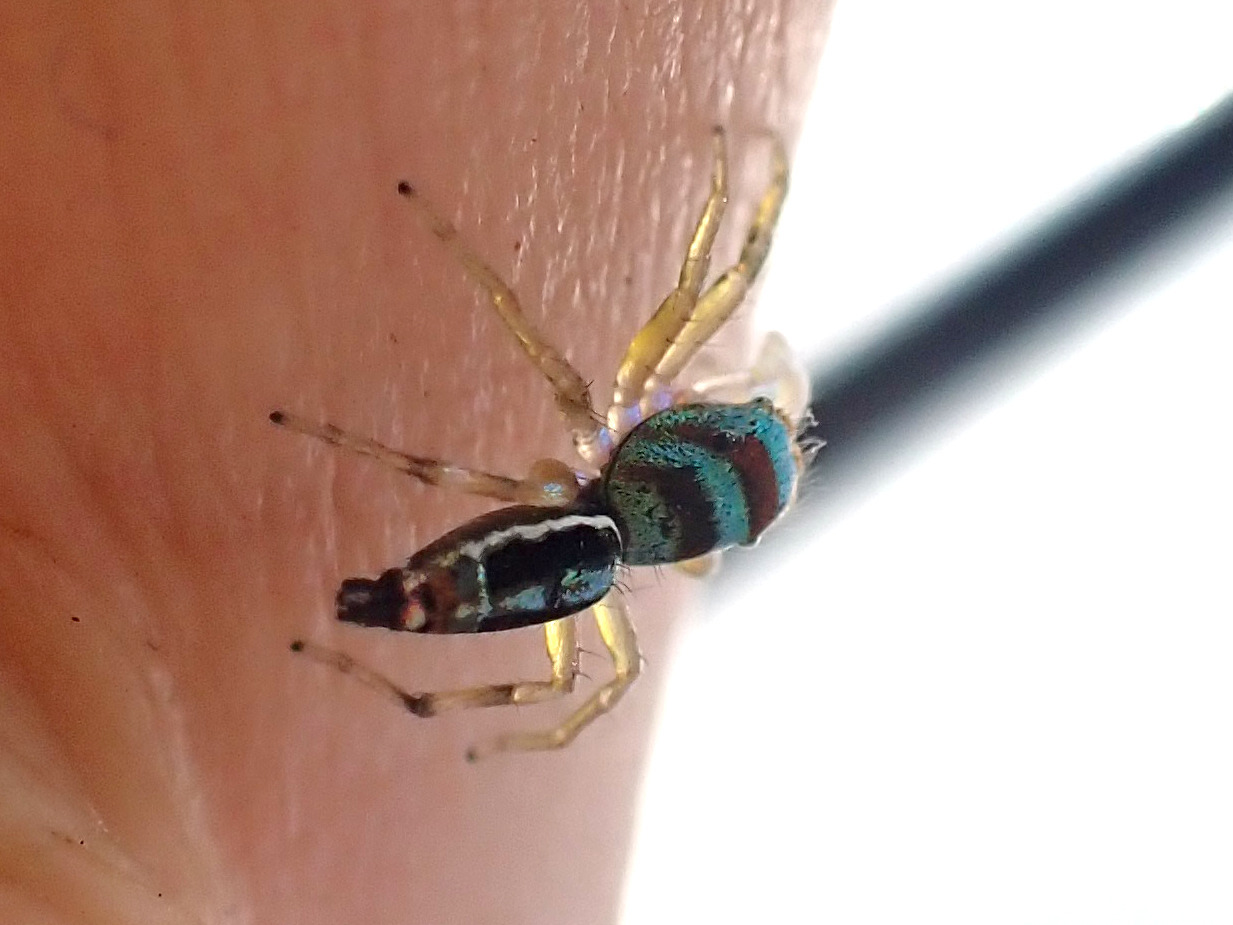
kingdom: Animalia
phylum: Arthropoda
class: Arachnida
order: Araneae
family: Salticidae
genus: Cosmophasis
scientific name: Cosmophasis micarioides
